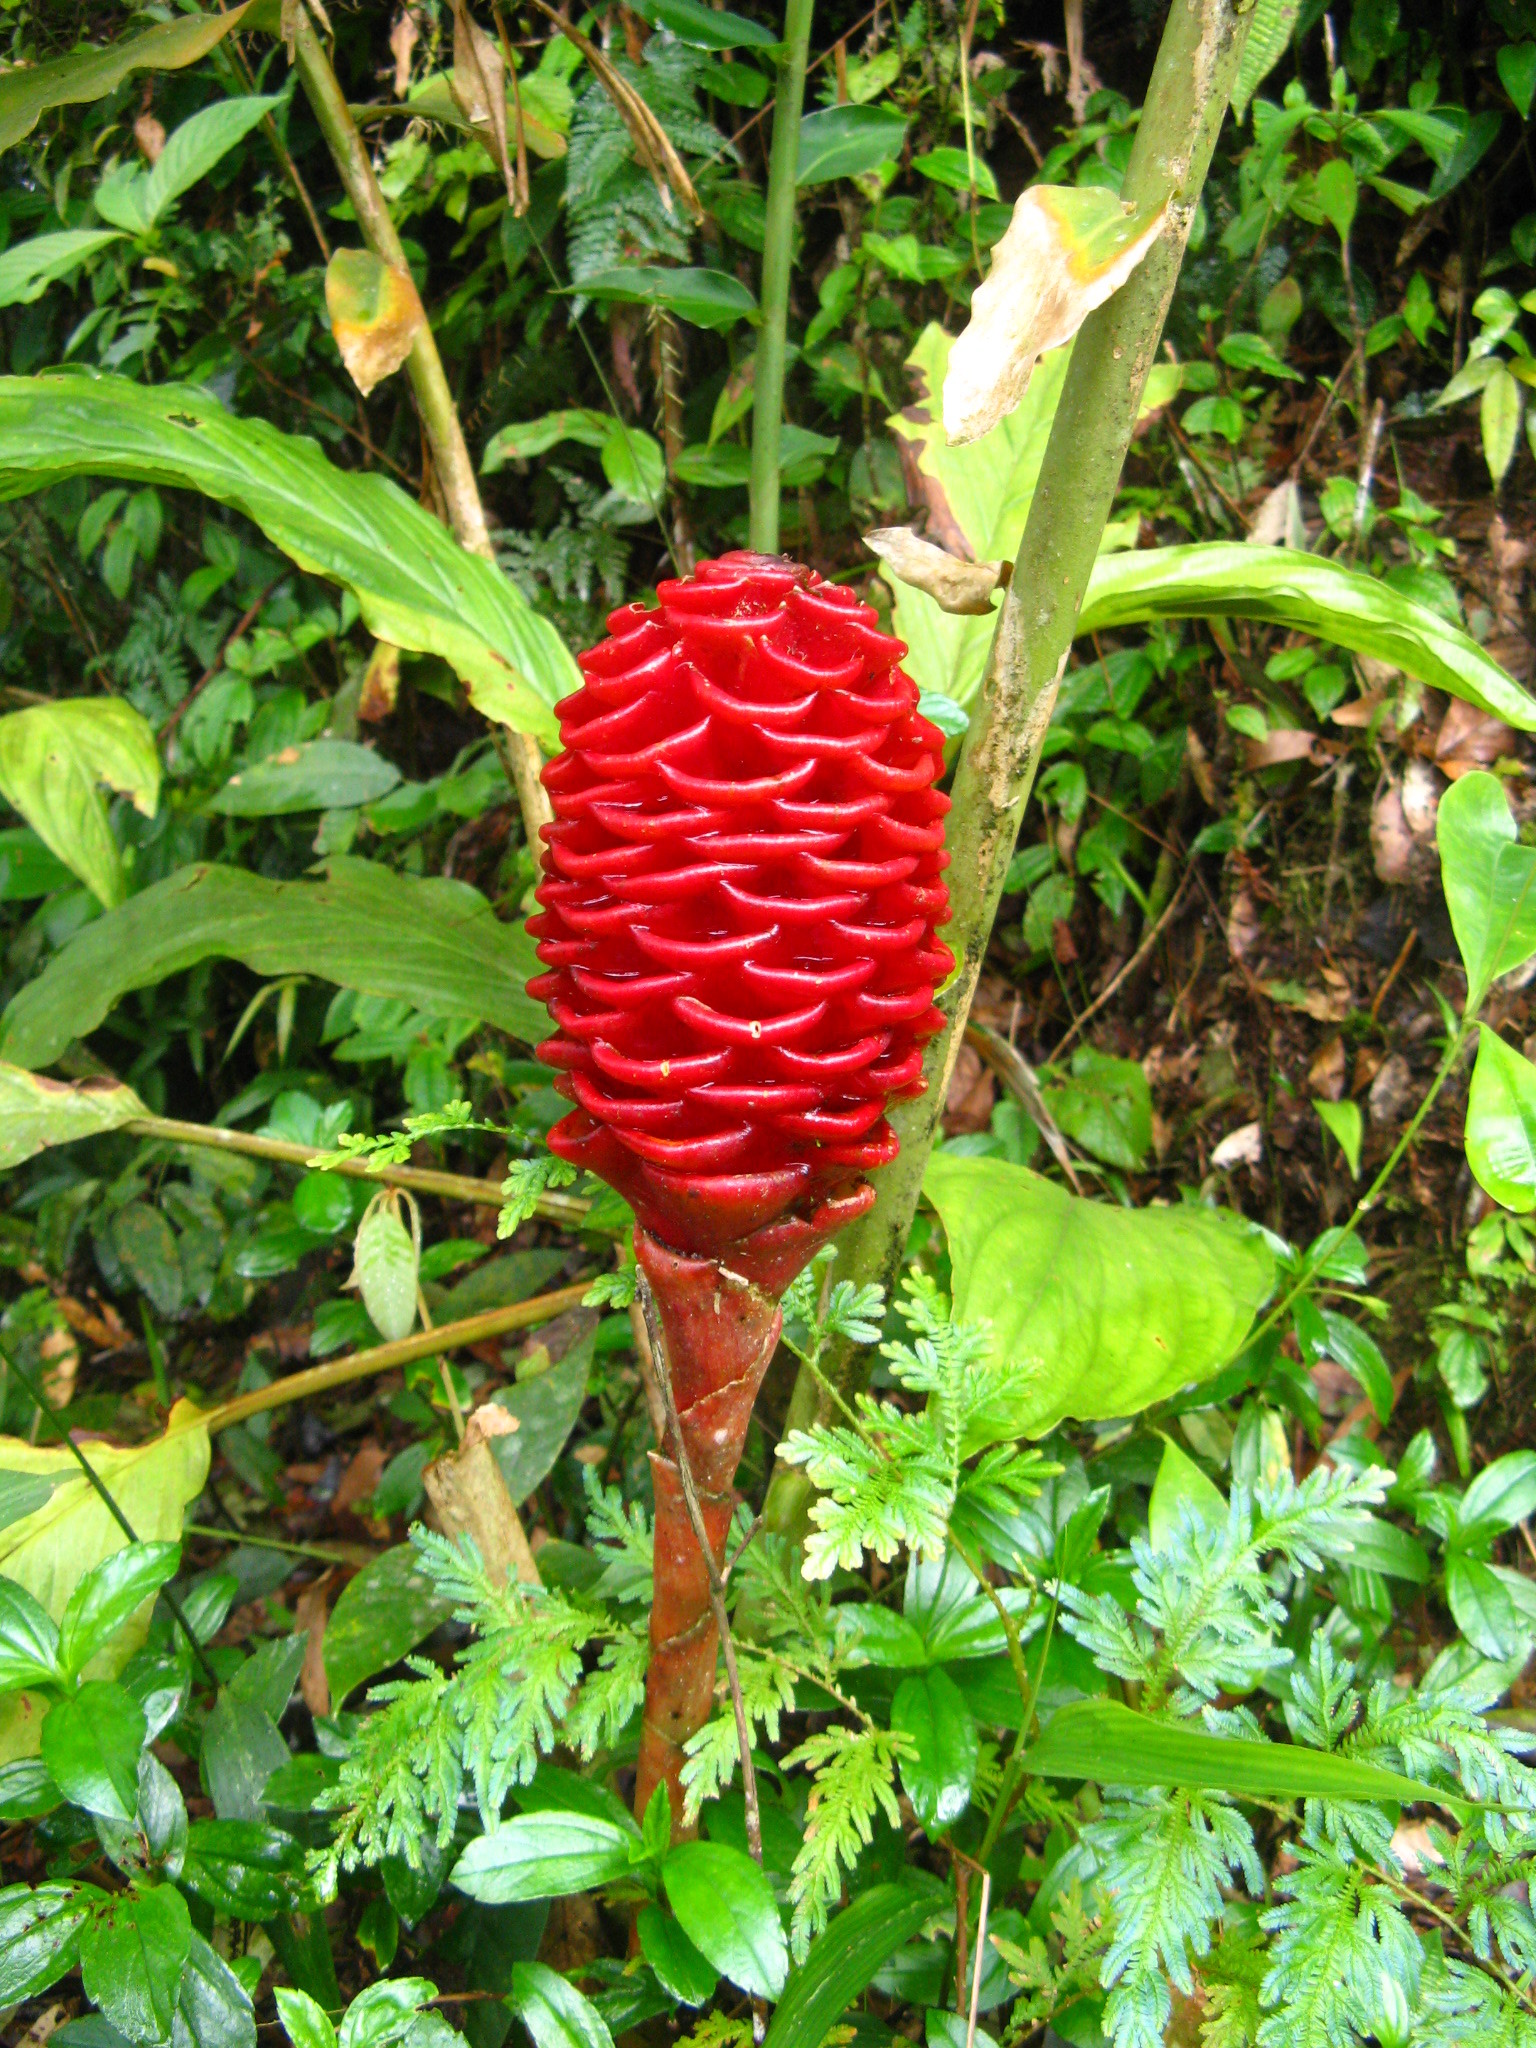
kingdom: Plantae
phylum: Tracheophyta
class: Liliopsida
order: Zingiberales
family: Zingiberaceae
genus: Zingiber
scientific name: Zingiber spectabile
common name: Beehive ginger
